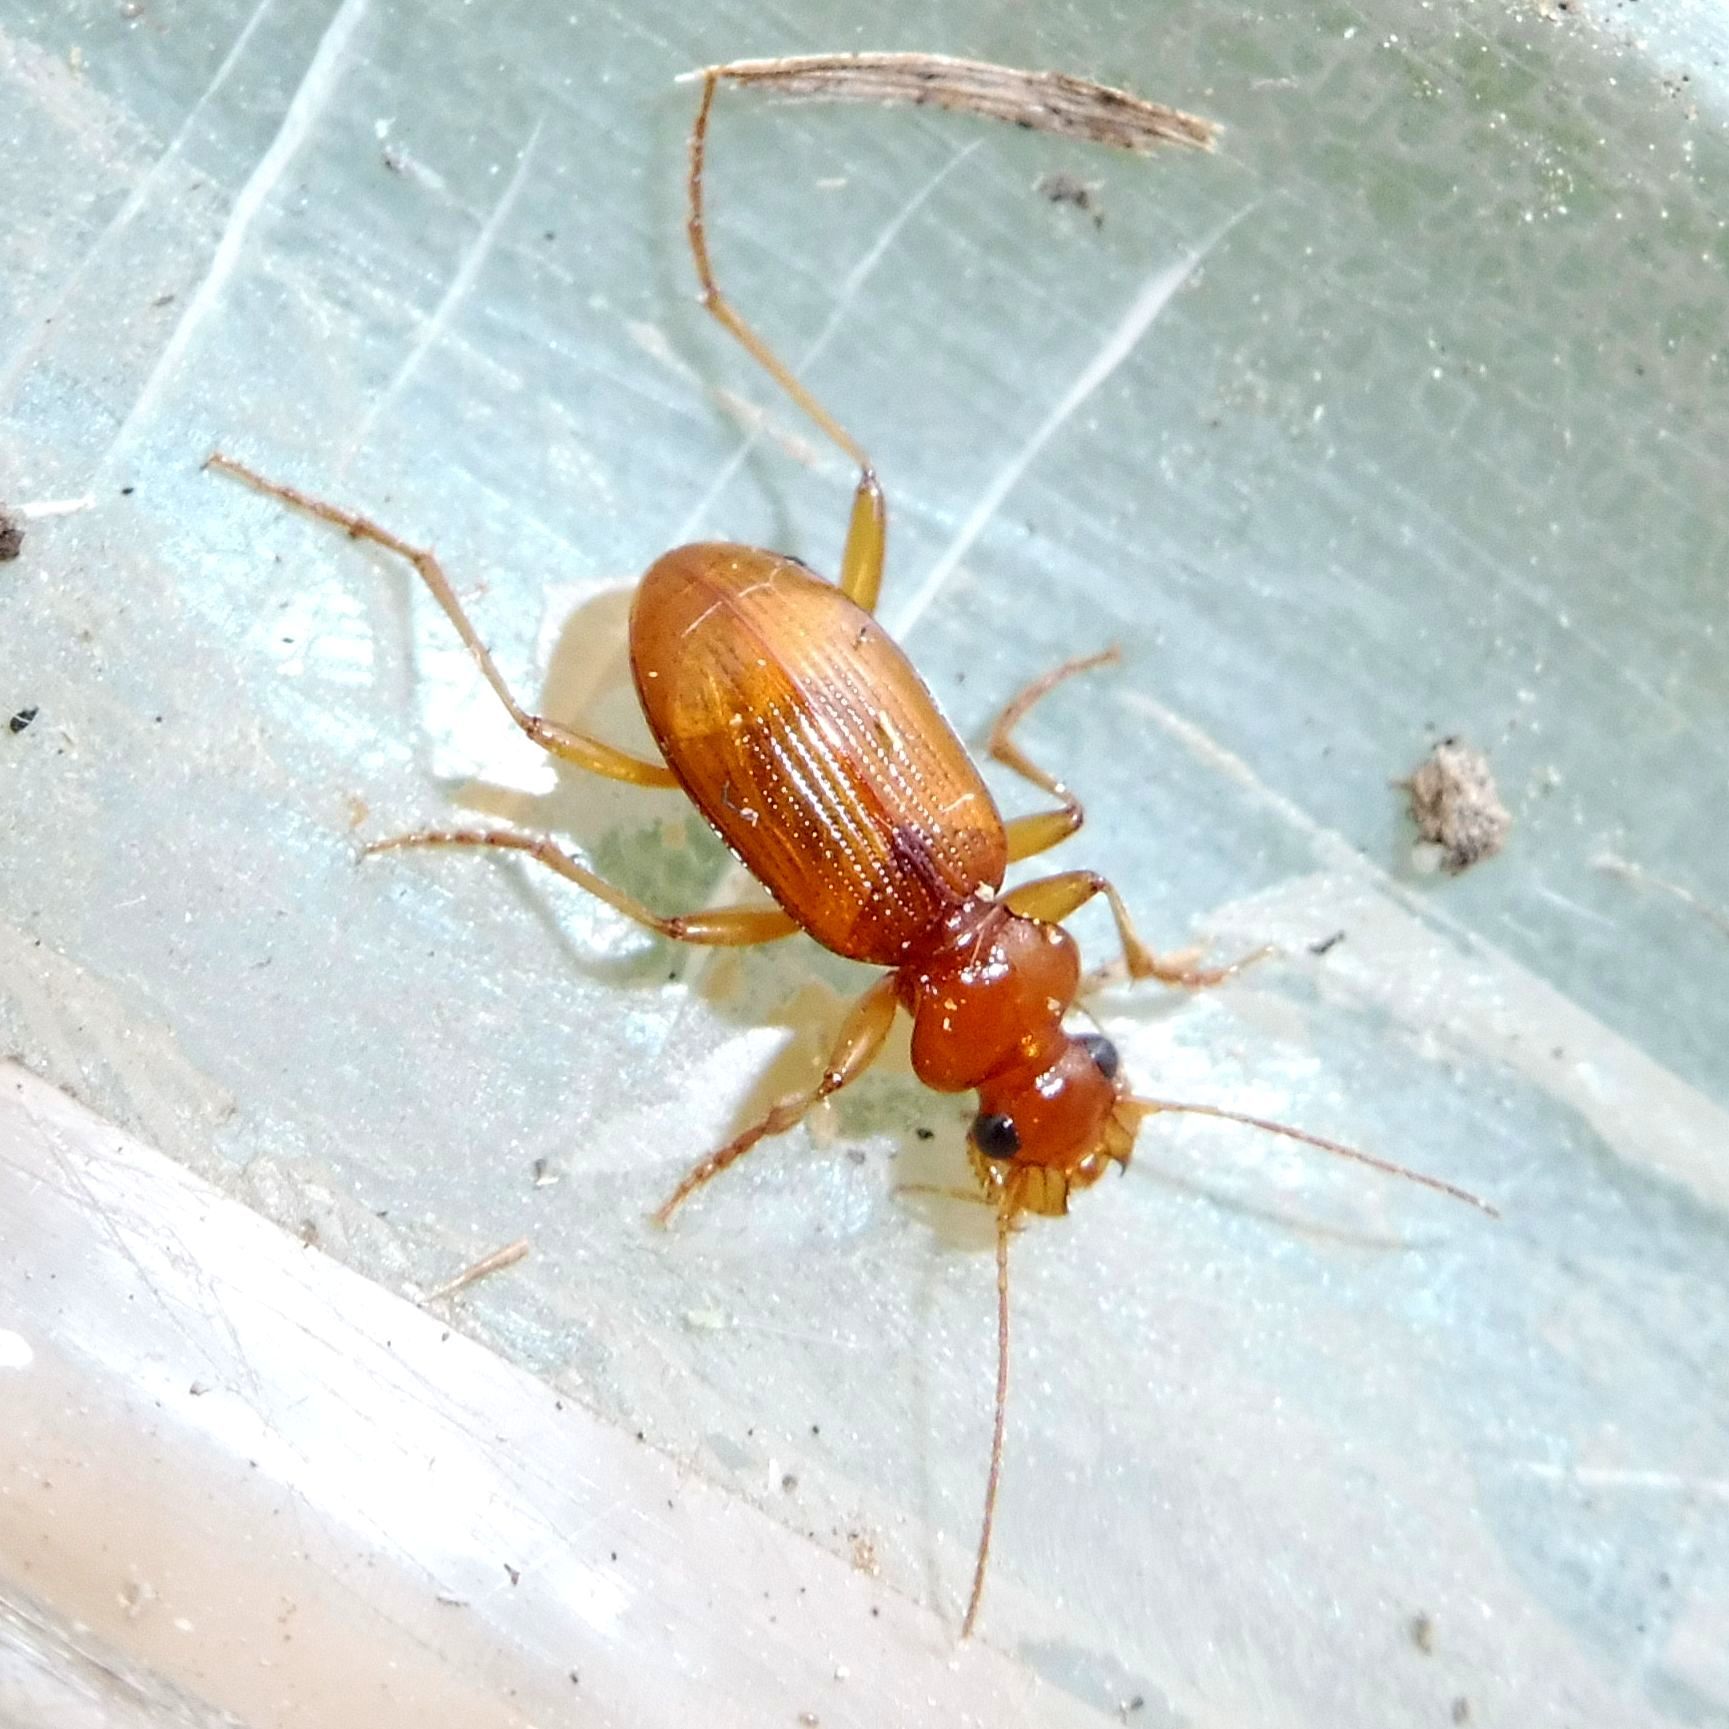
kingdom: Animalia
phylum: Arthropoda
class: Insecta
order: Coleoptera
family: Carabidae
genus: Leistus
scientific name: Leistus ferrugineus
